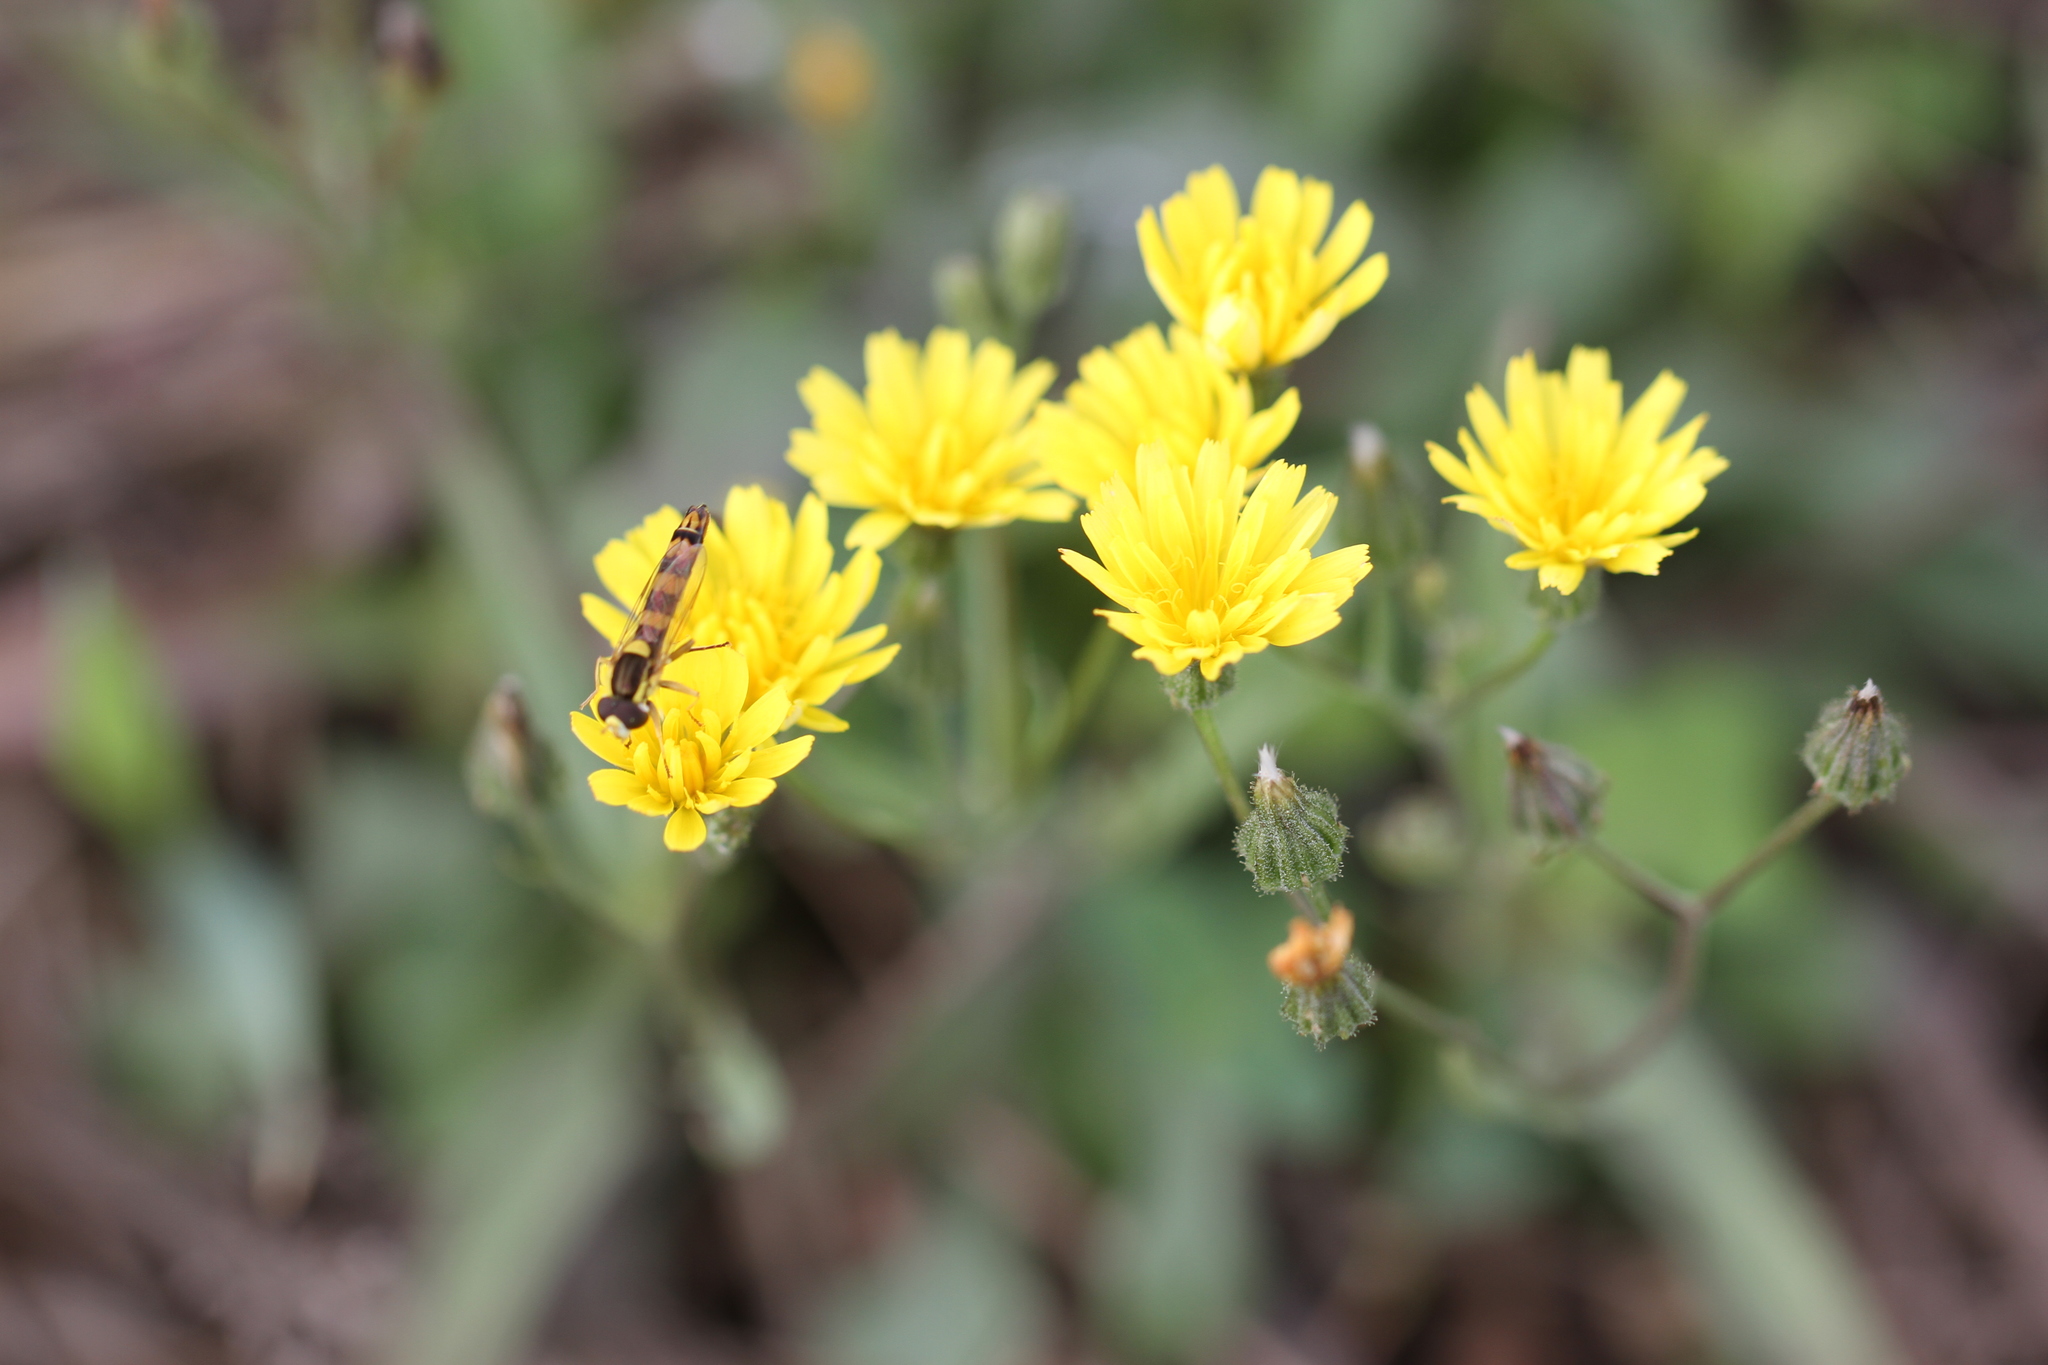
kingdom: Animalia
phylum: Arthropoda
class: Insecta
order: Diptera
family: Syrphidae
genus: Sphaerophoria
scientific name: Sphaerophoria scripta
